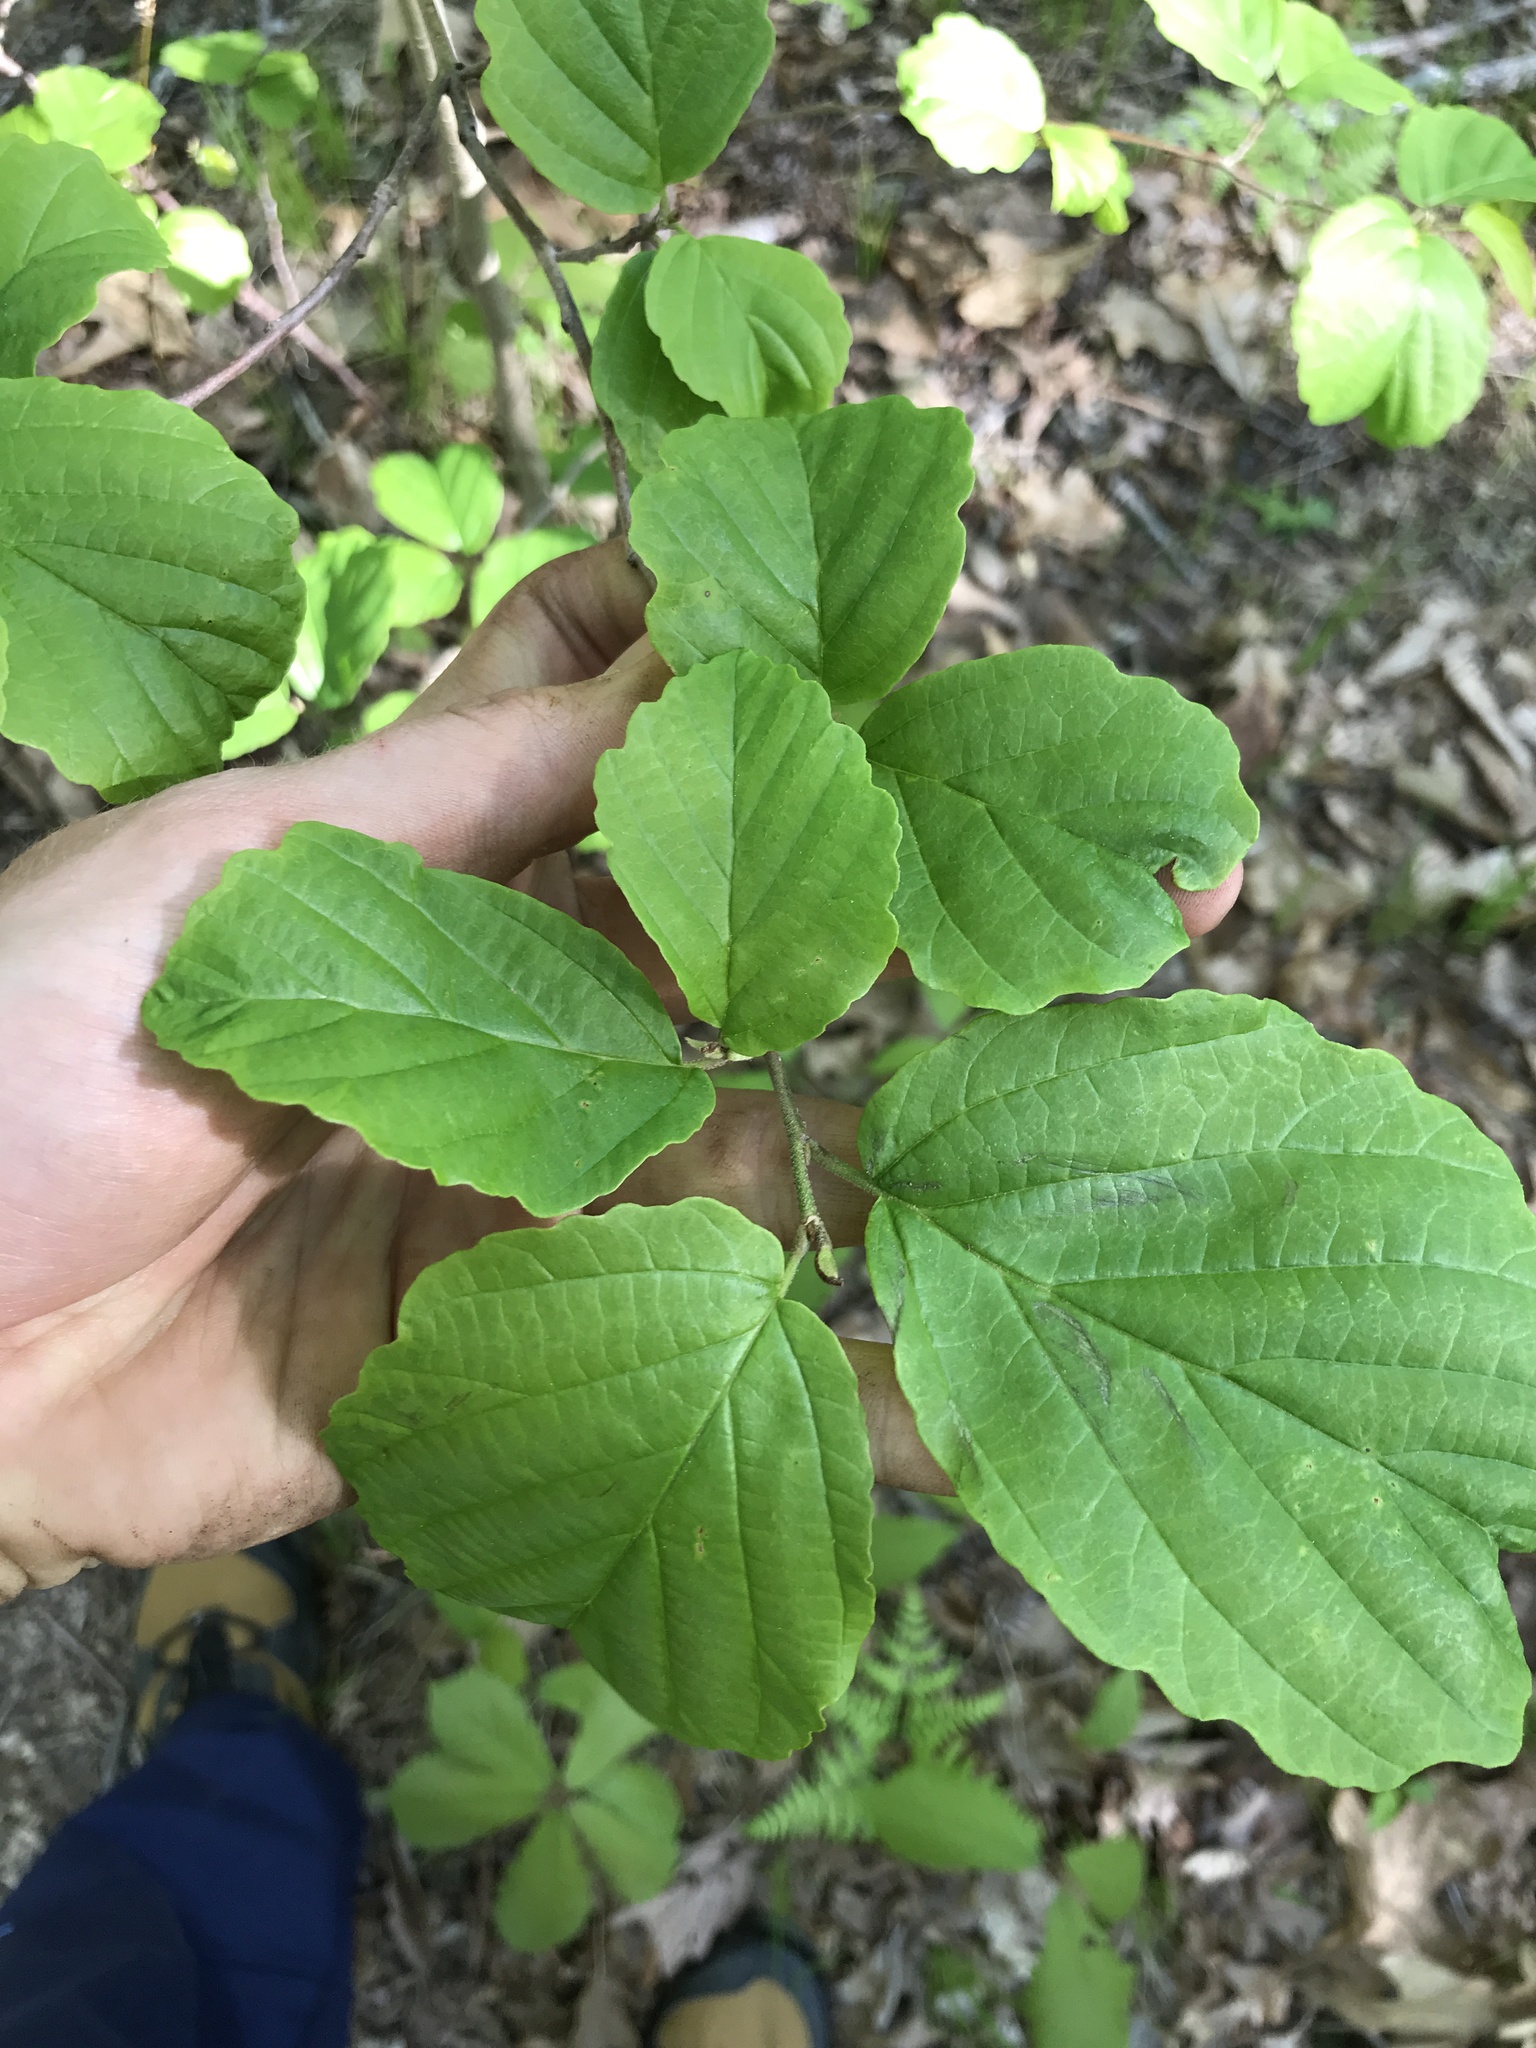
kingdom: Plantae
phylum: Tracheophyta
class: Magnoliopsida
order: Saxifragales
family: Hamamelidaceae
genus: Hamamelis
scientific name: Hamamelis virginiana
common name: Witch-hazel
